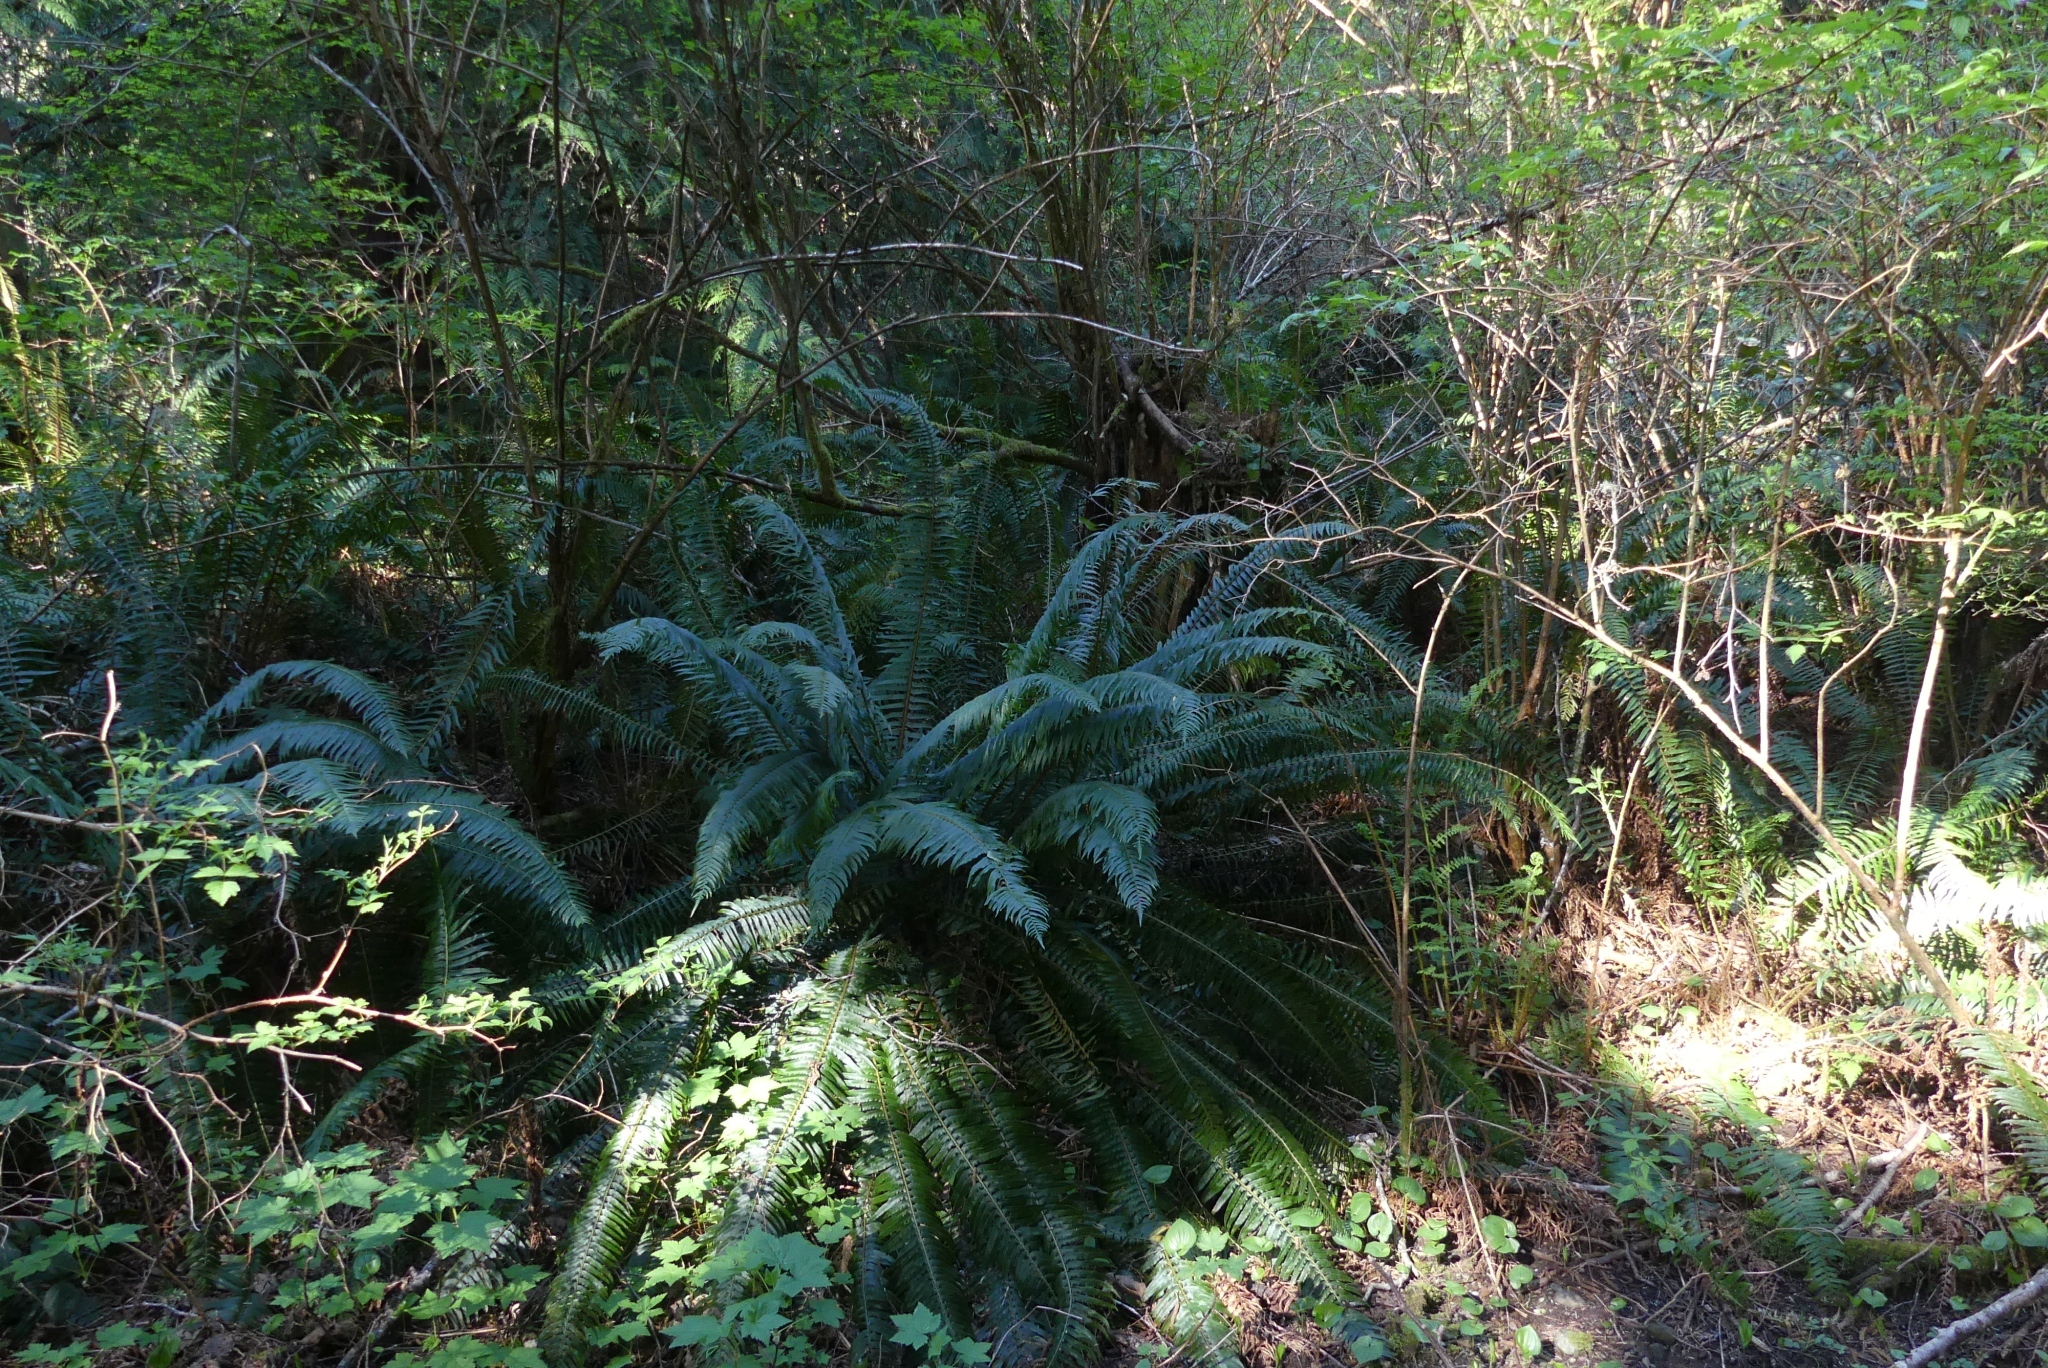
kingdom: Plantae
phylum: Tracheophyta
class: Polypodiopsida
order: Polypodiales
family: Dryopteridaceae
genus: Polystichum
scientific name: Polystichum munitum
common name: Western sword-fern
